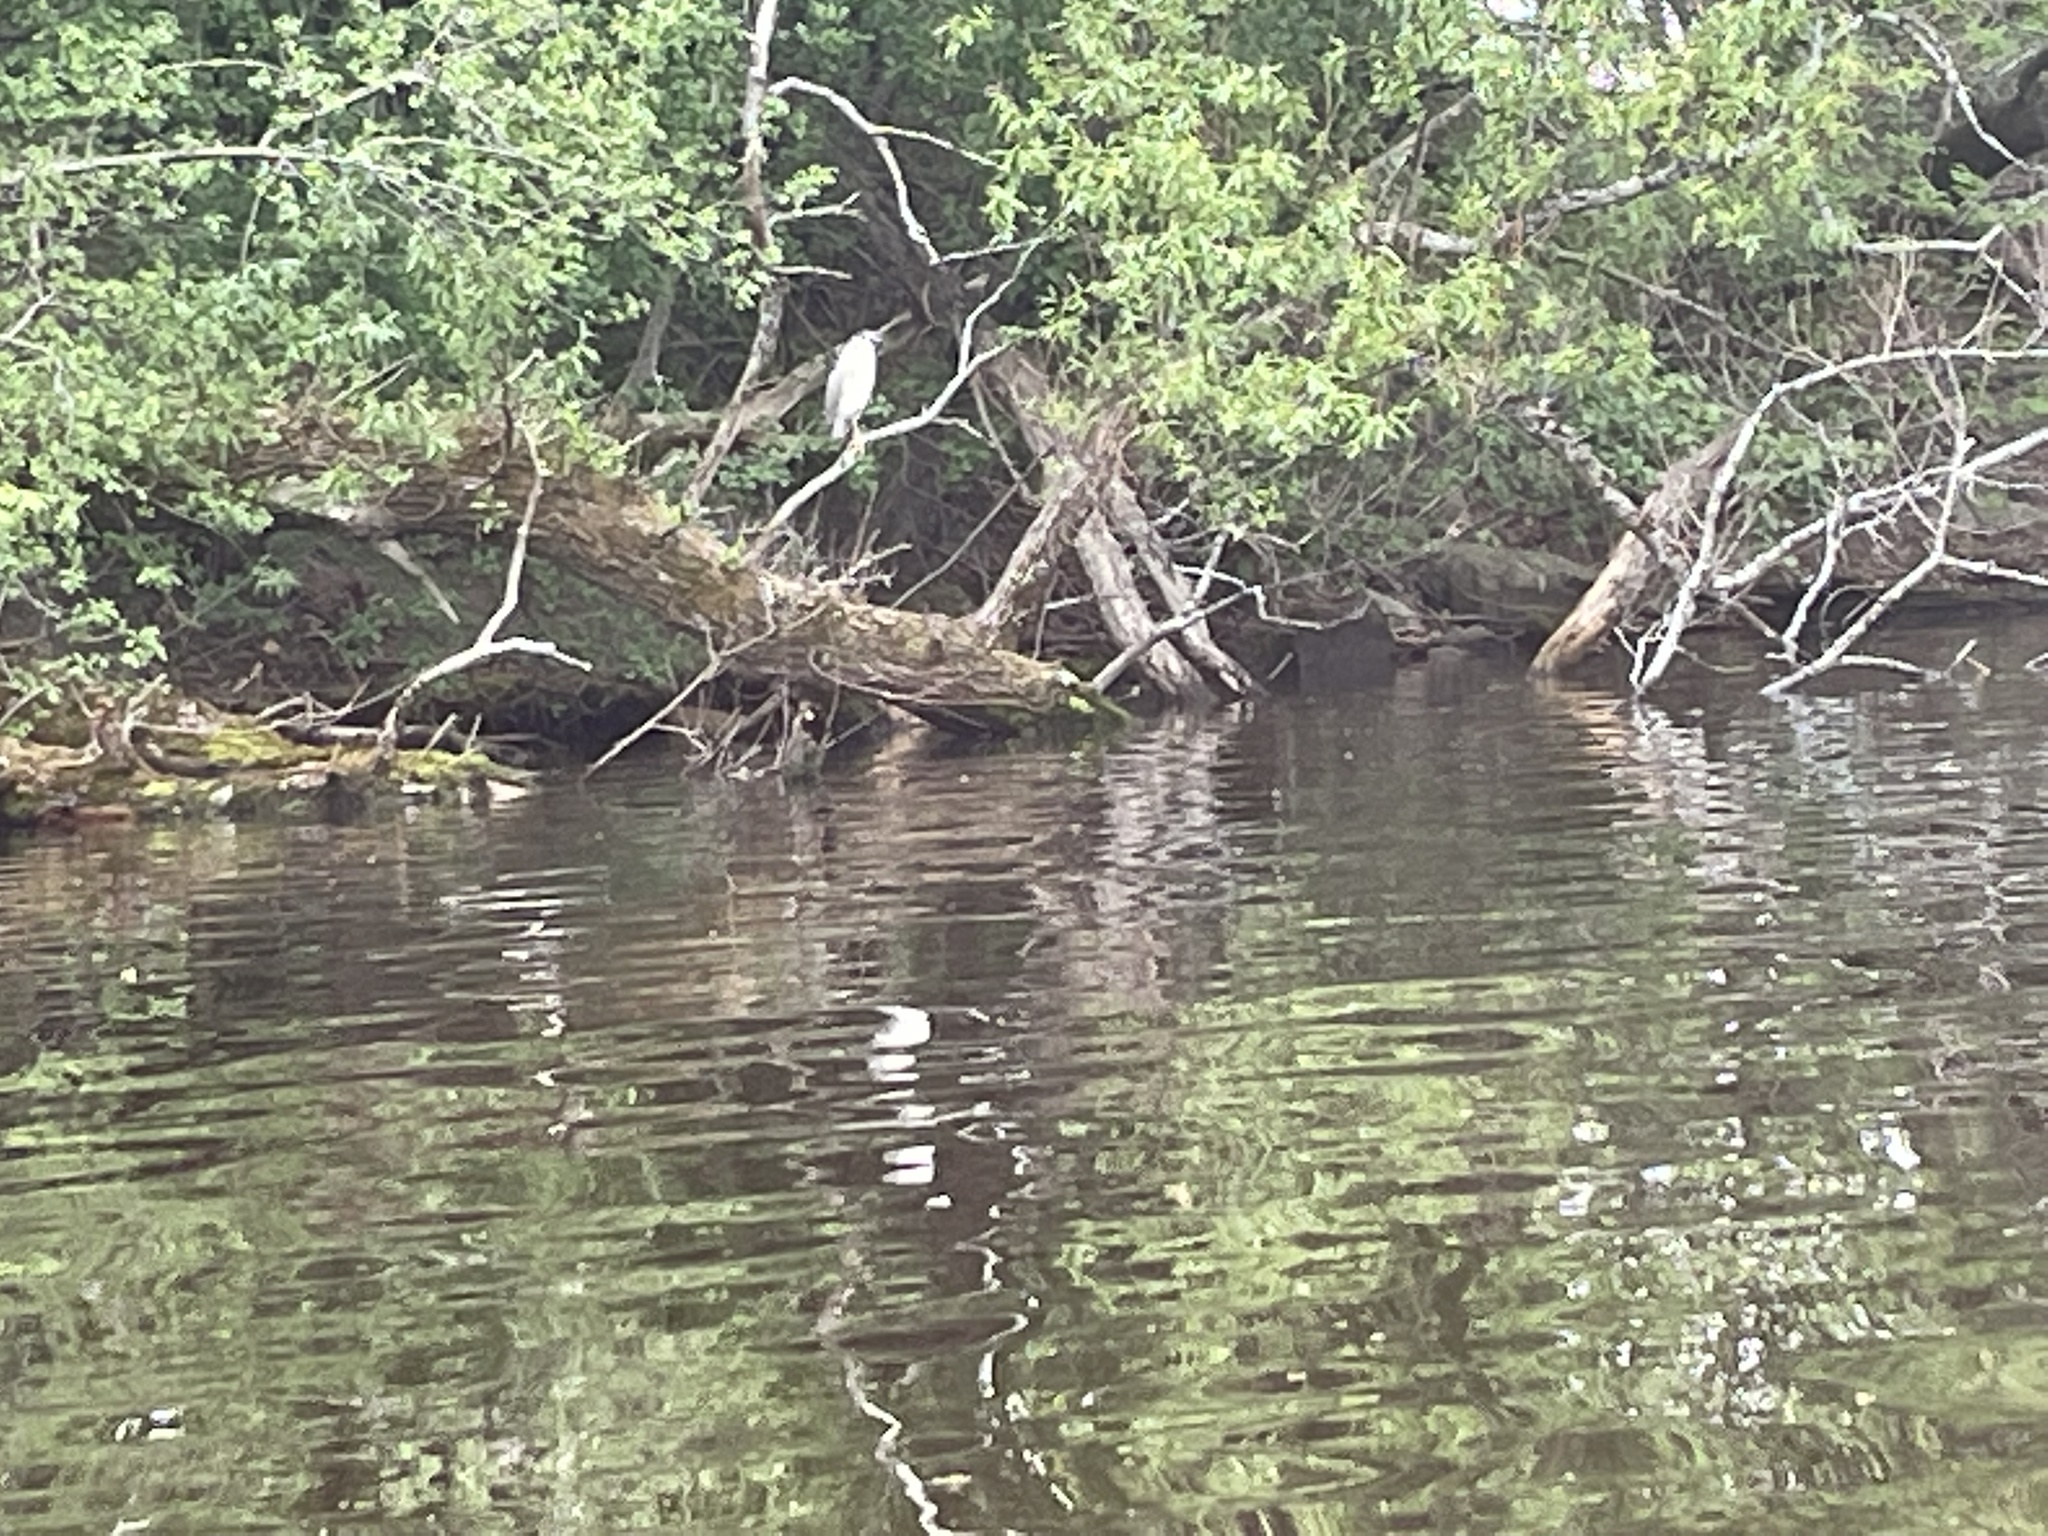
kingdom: Animalia
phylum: Chordata
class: Aves
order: Pelecaniformes
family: Ardeidae
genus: Nycticorax
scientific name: Nycticorax nycticorax
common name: Black-crowned night heron
